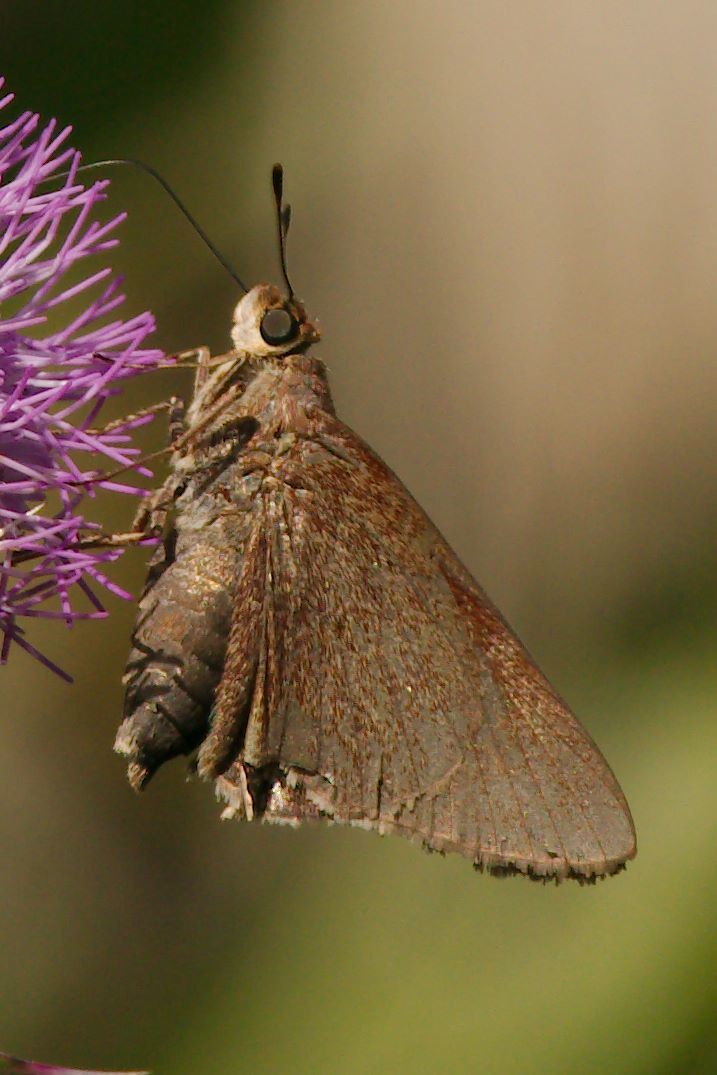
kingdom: Animalia
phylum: Arthropoda
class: Insecta
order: Lepidoptera
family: Hesperiidae
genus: Asbolis
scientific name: Asbolis capucinus
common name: Monk skipper
